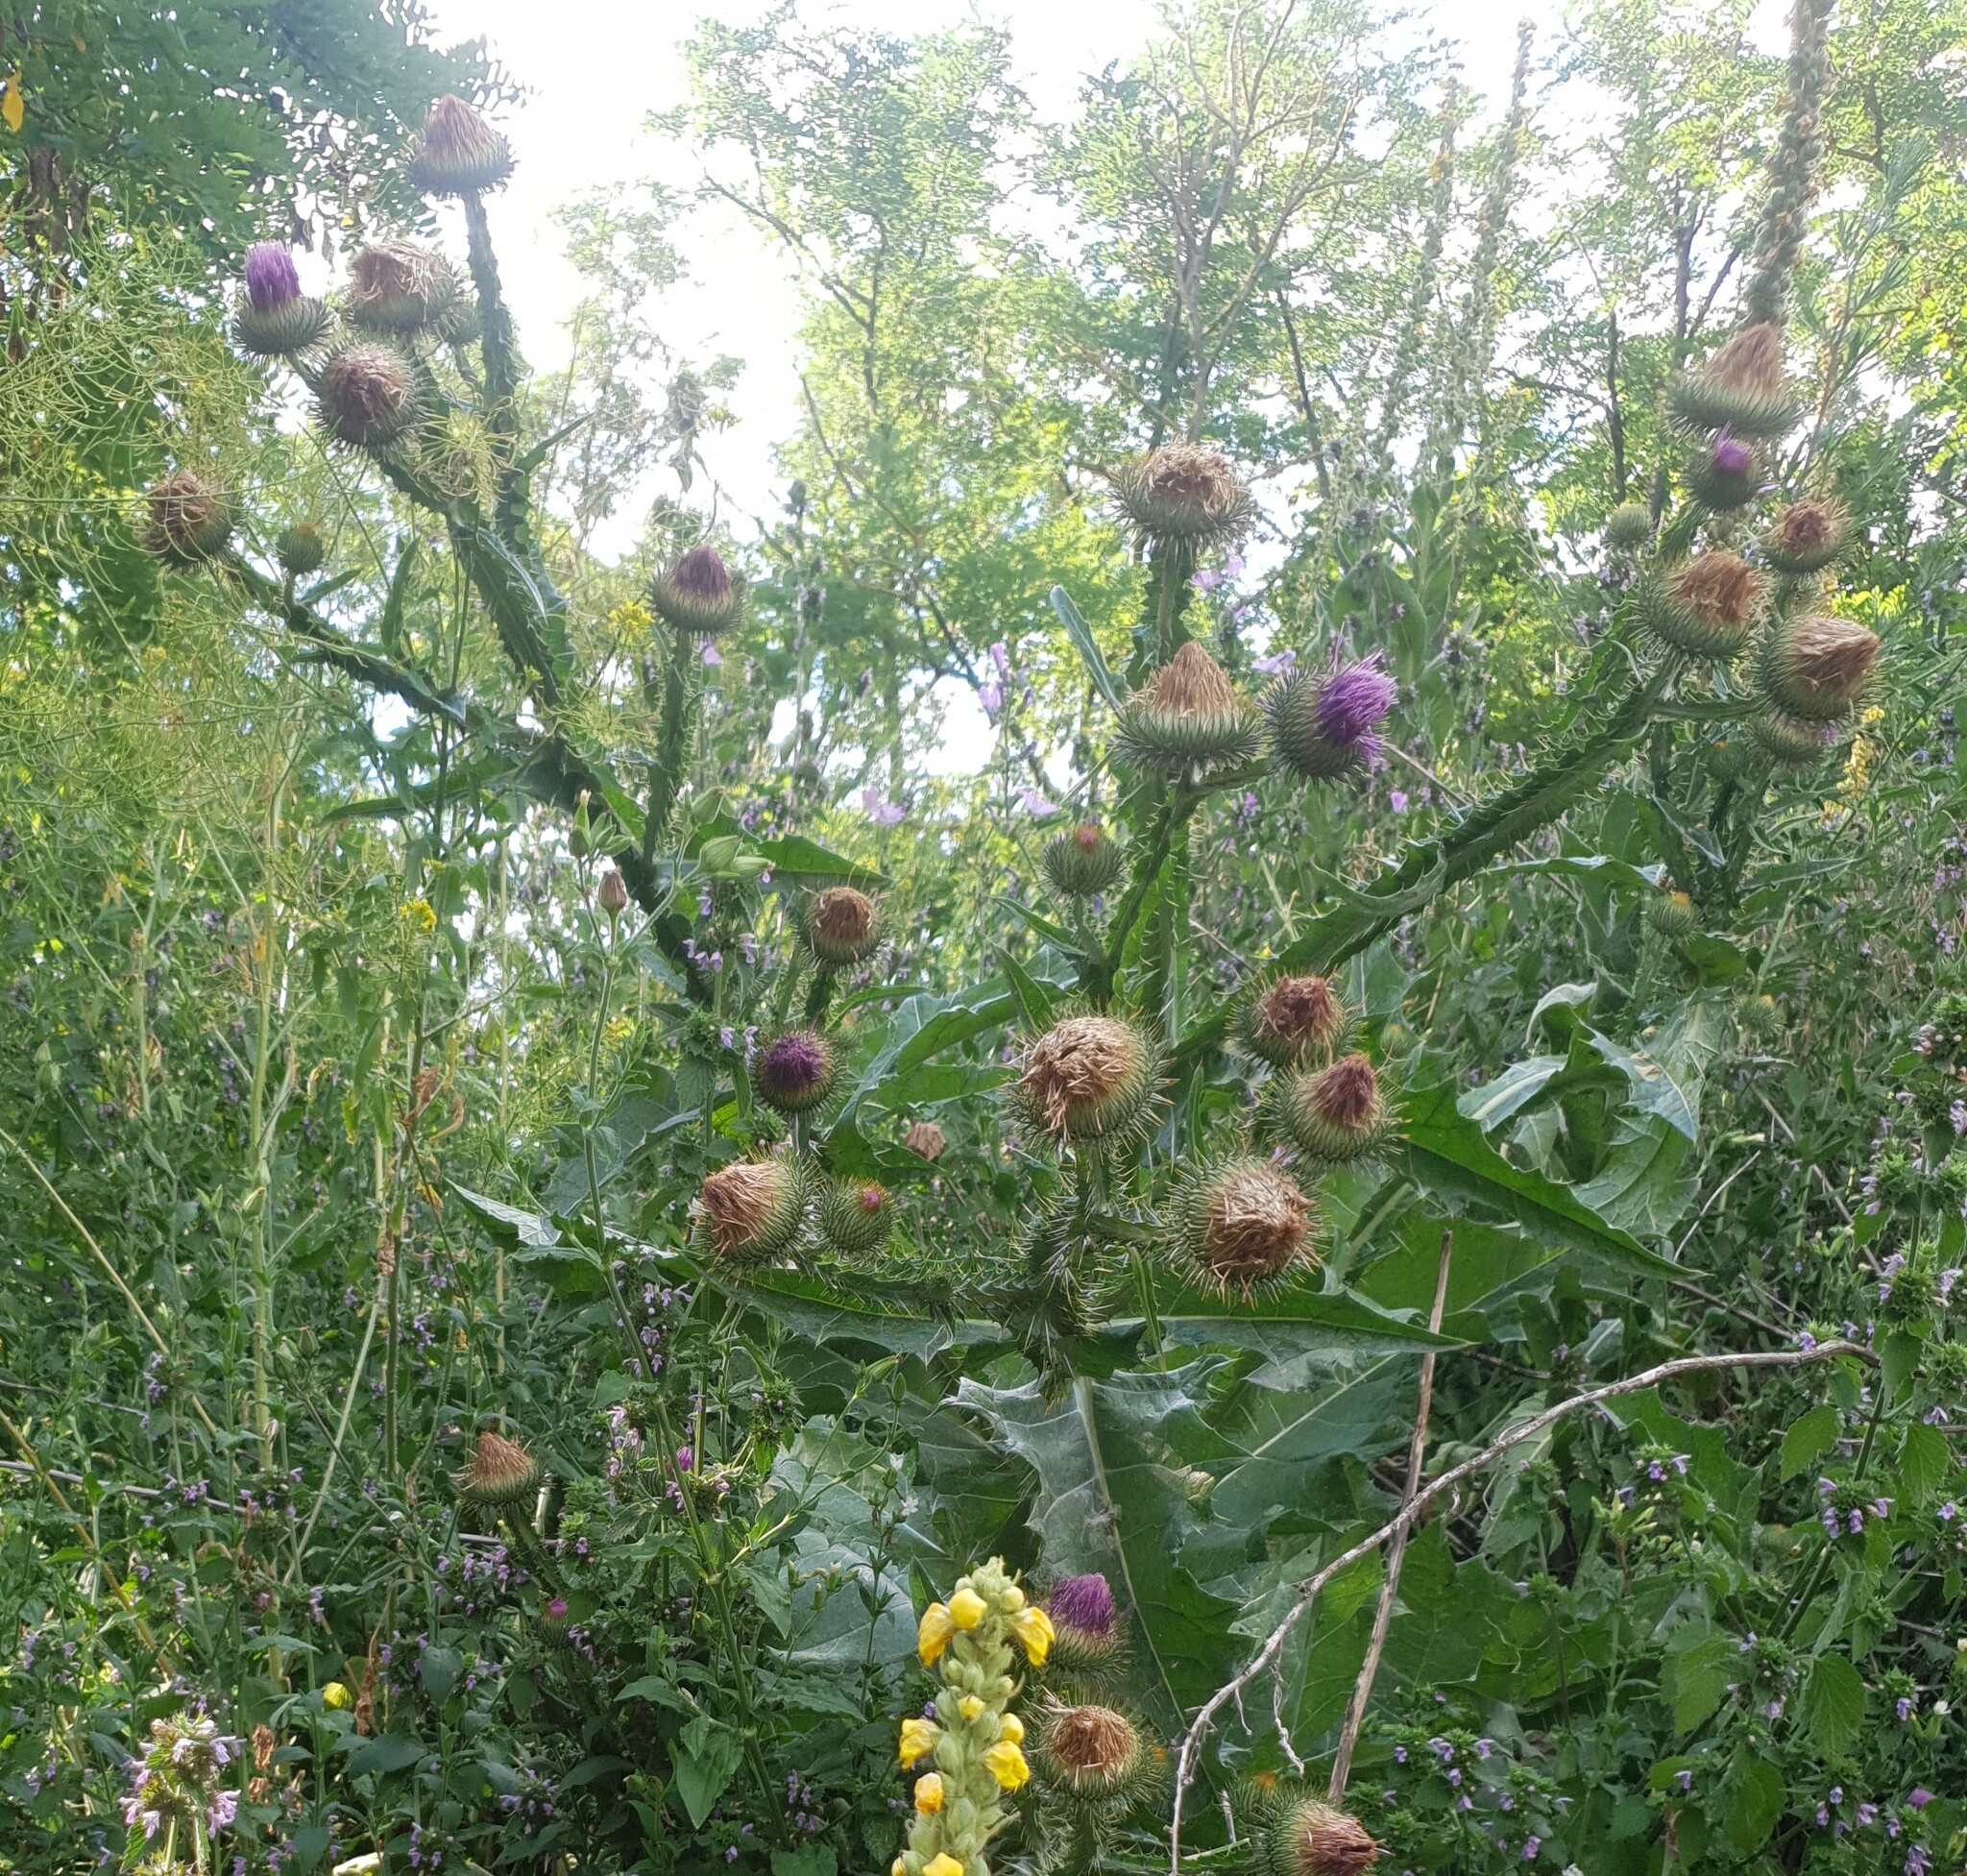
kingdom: Plantae
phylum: Tracheophyta
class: Magnoliopsida
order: Asterales
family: Asteraceae
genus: Onopordum
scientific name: Onopordum acanthium
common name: Scotch thistle
